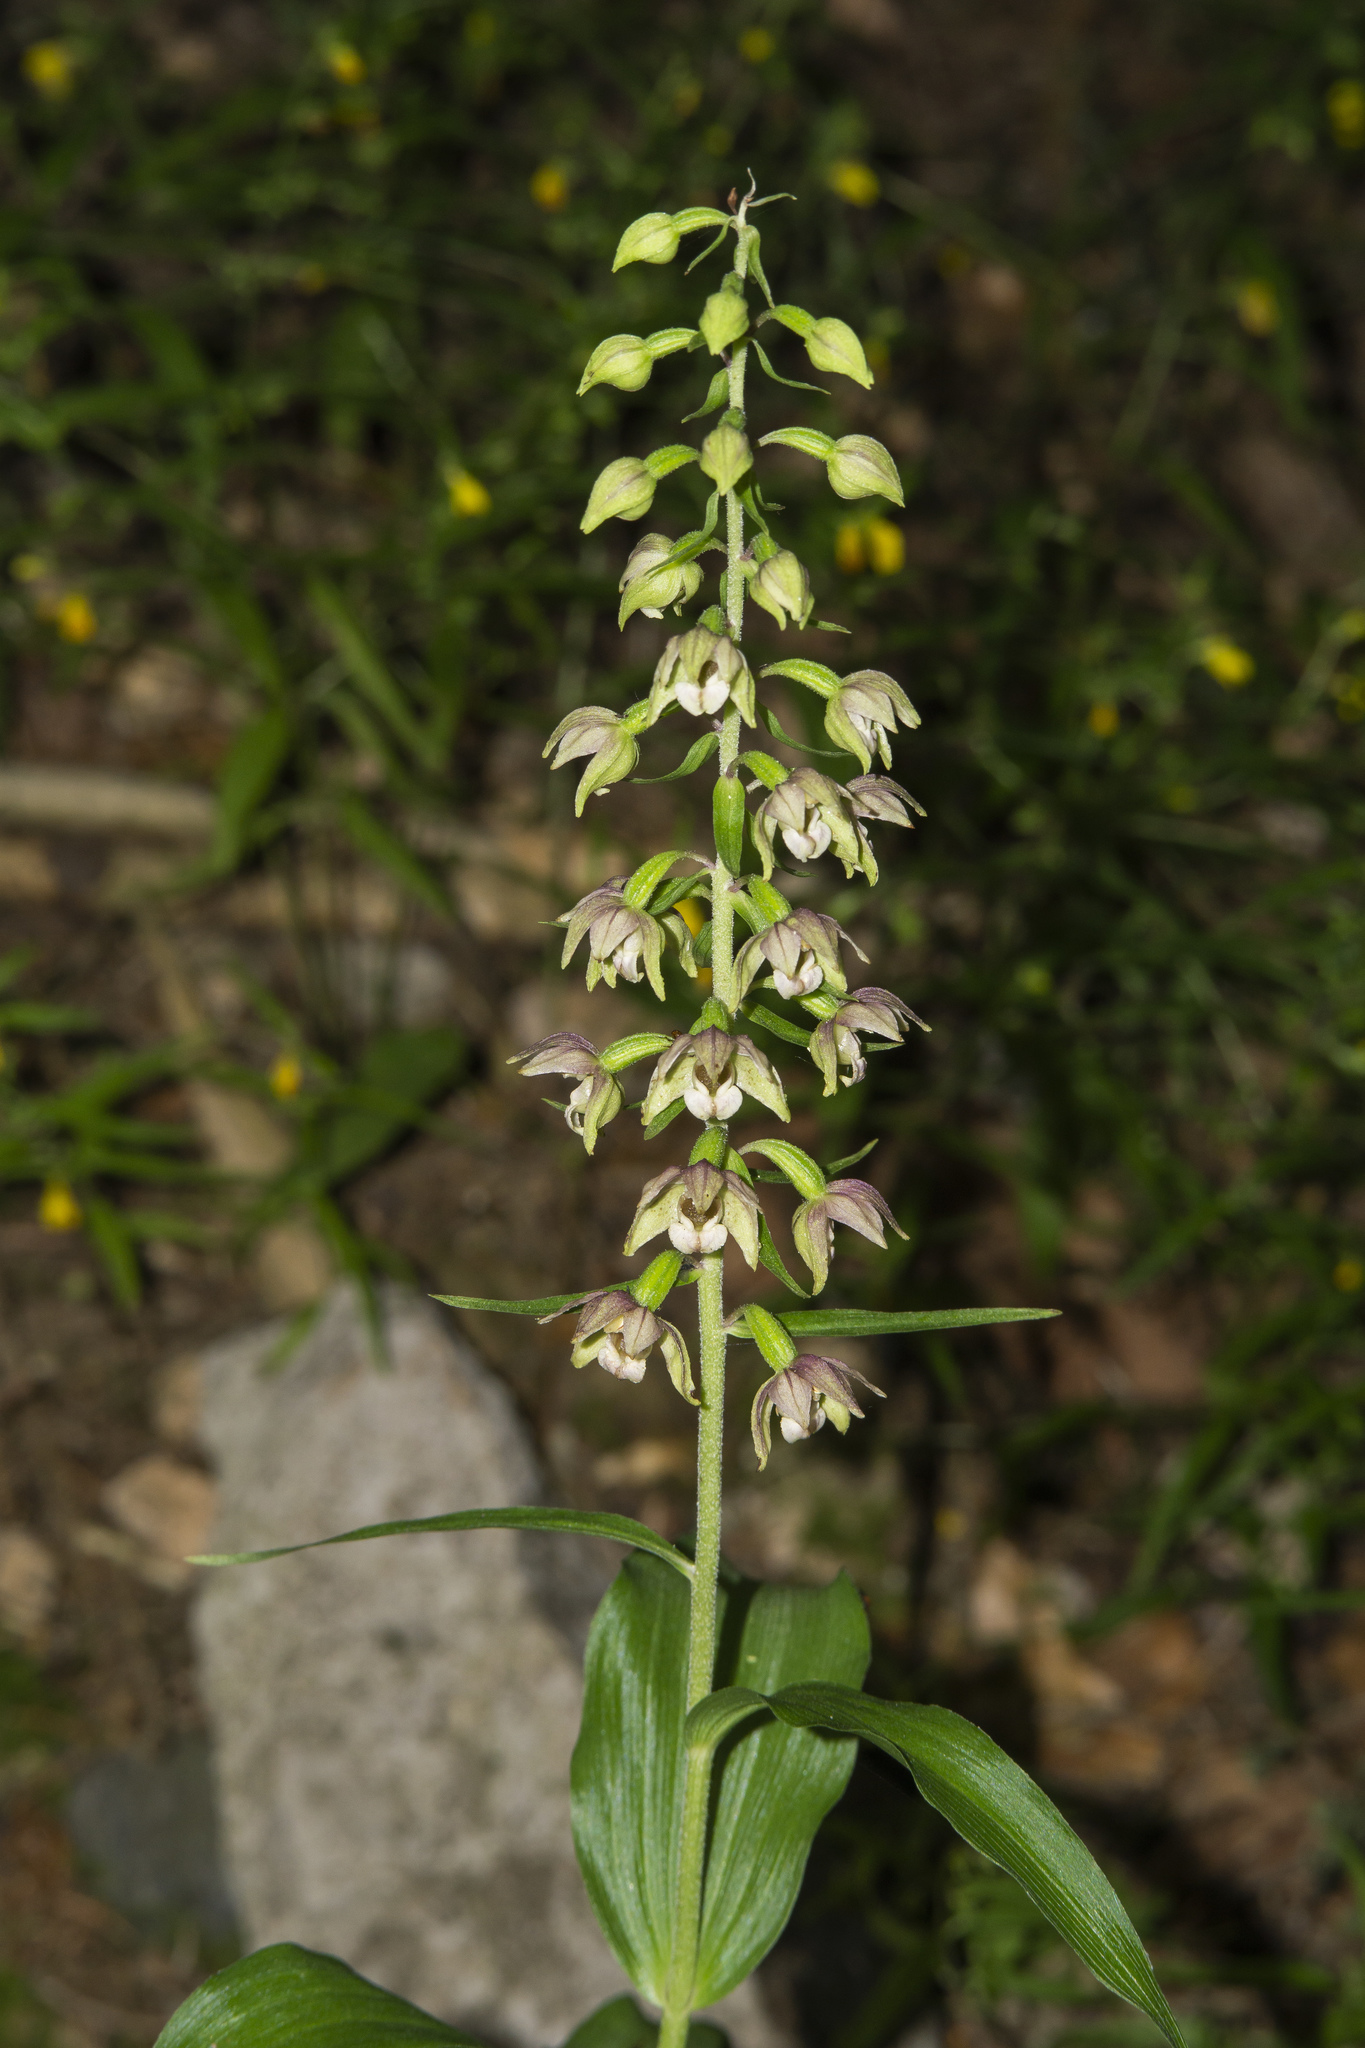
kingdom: Plantae
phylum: Tracheophyta
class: Liliopsida
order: Asparagales
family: Orchidaceae
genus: Epipactis
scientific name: Epipactis helleborine
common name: Broad-leaved helleborine
